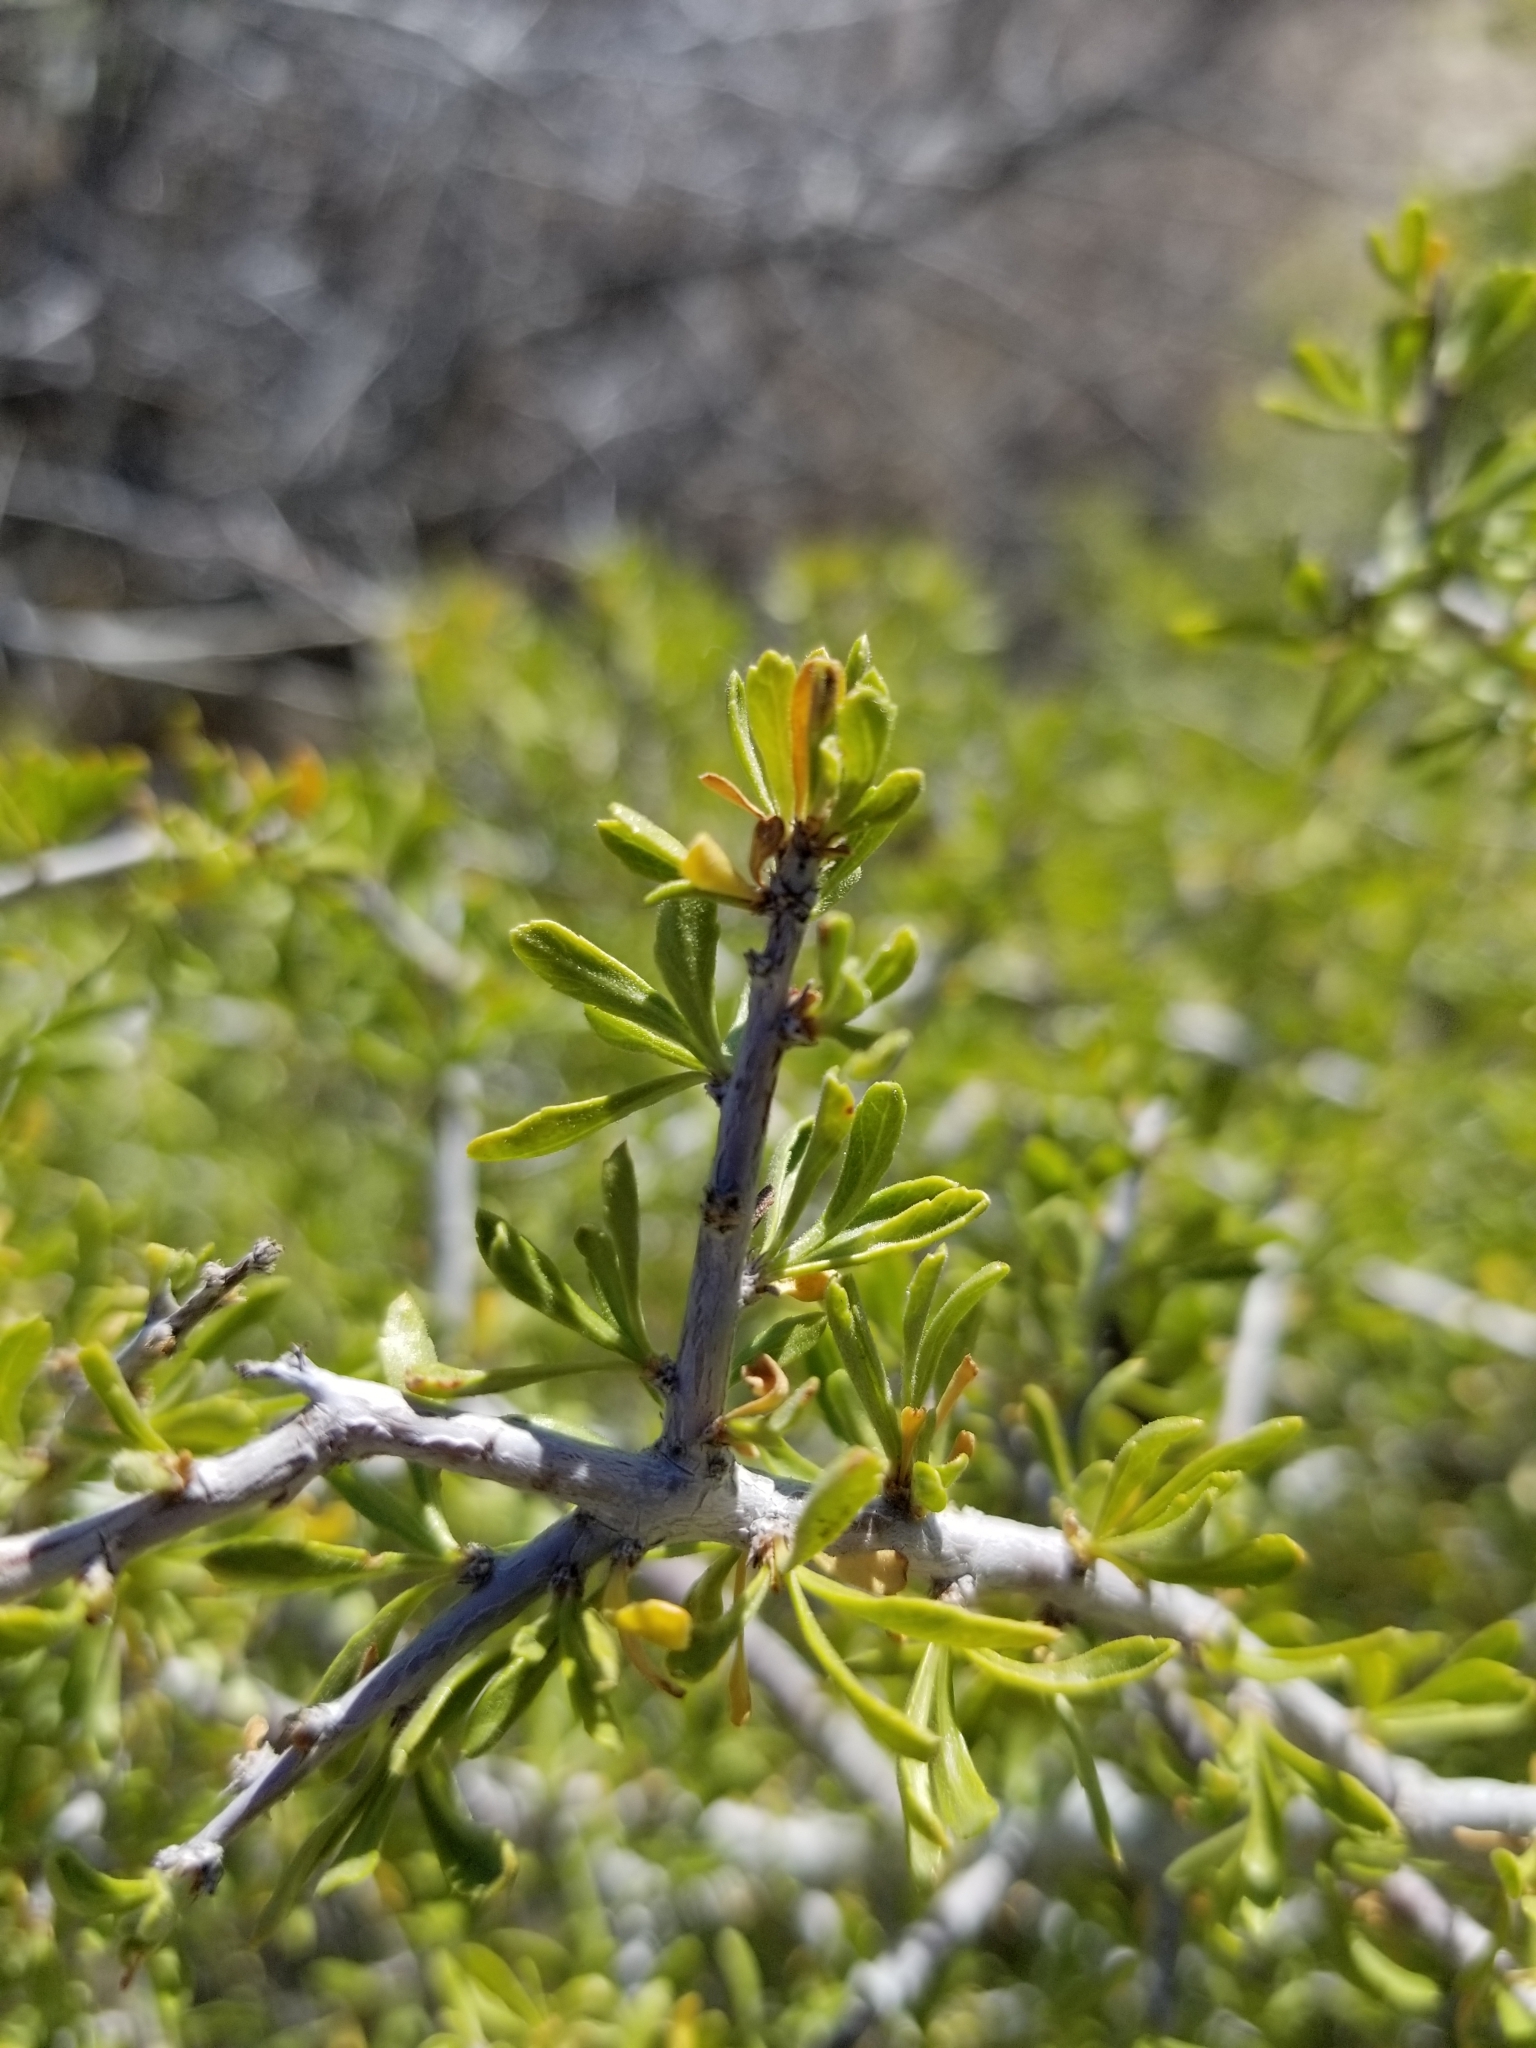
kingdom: Plantae
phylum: Tracheophyta
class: Magnoliopsida
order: Rosales
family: Rosaceae
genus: Prunus
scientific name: Prunus fasciculata
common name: Desert almond
